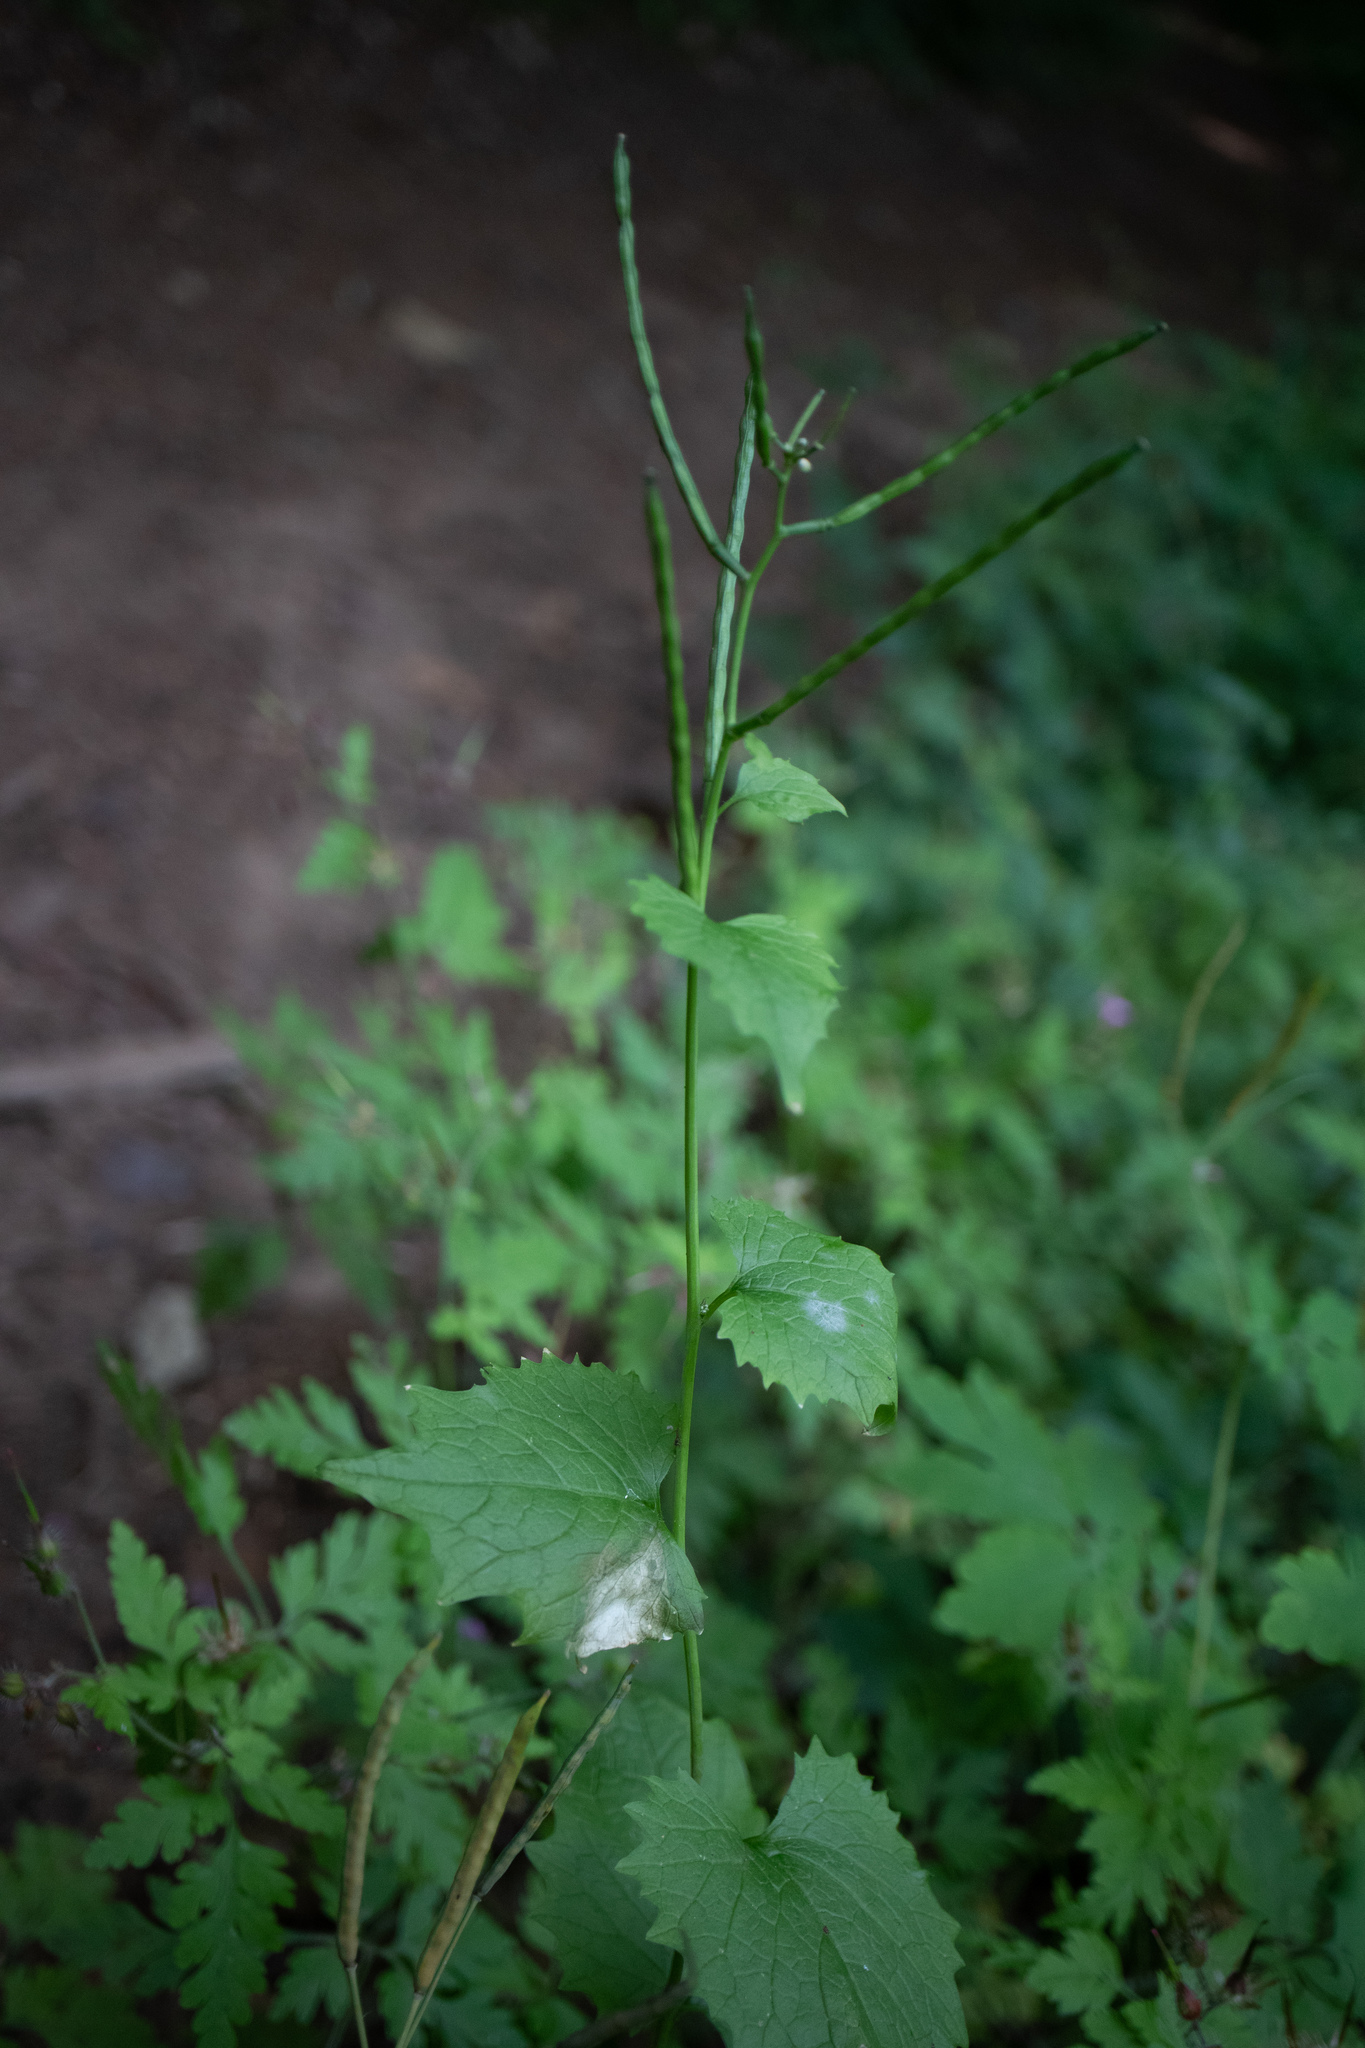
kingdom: Plantae
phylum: Tracheophyta
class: Magnoliopsida
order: Ranunculales
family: Papaveraceae
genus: Chelidonium
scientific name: Chelidonium majus
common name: Greater celandine
